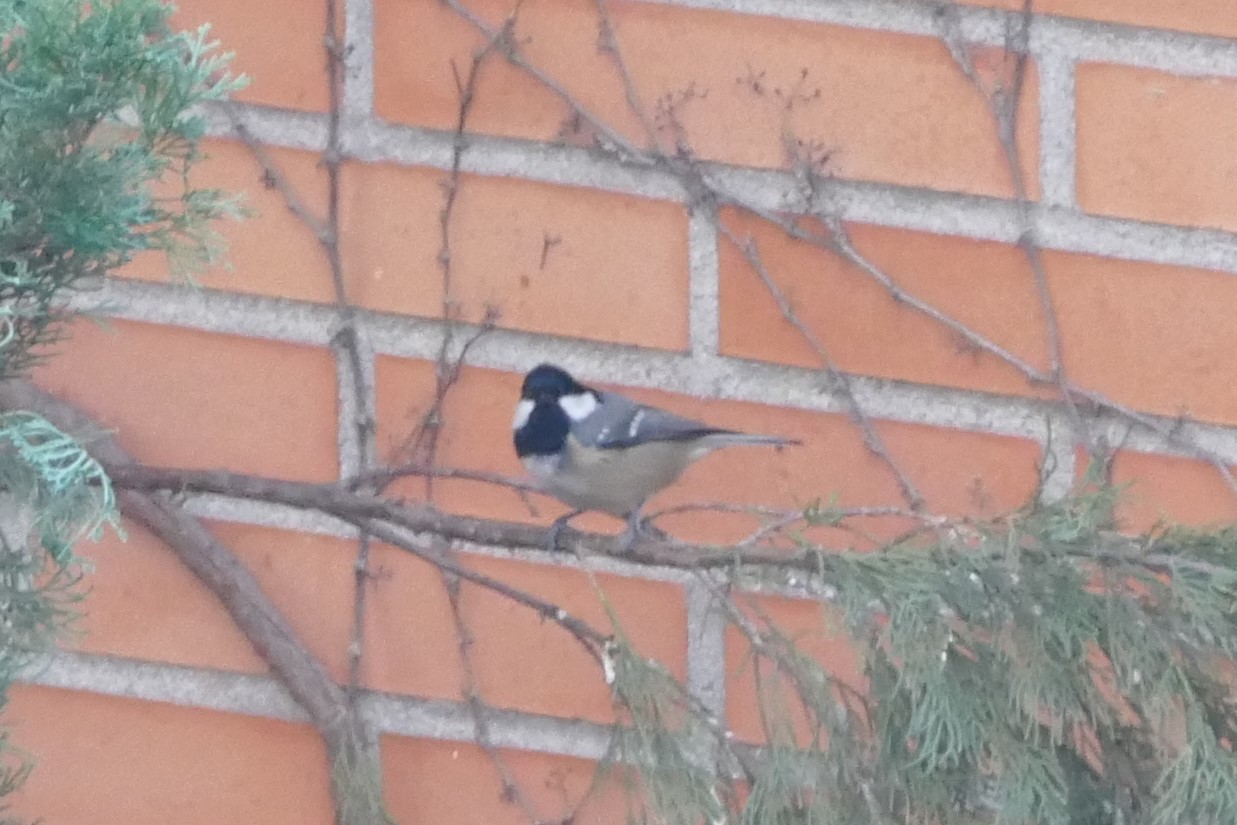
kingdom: Animalia
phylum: Chordata
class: Aves
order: Passeriformes
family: Paridae
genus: Periparus
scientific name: Periparus ater
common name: Coal tit
